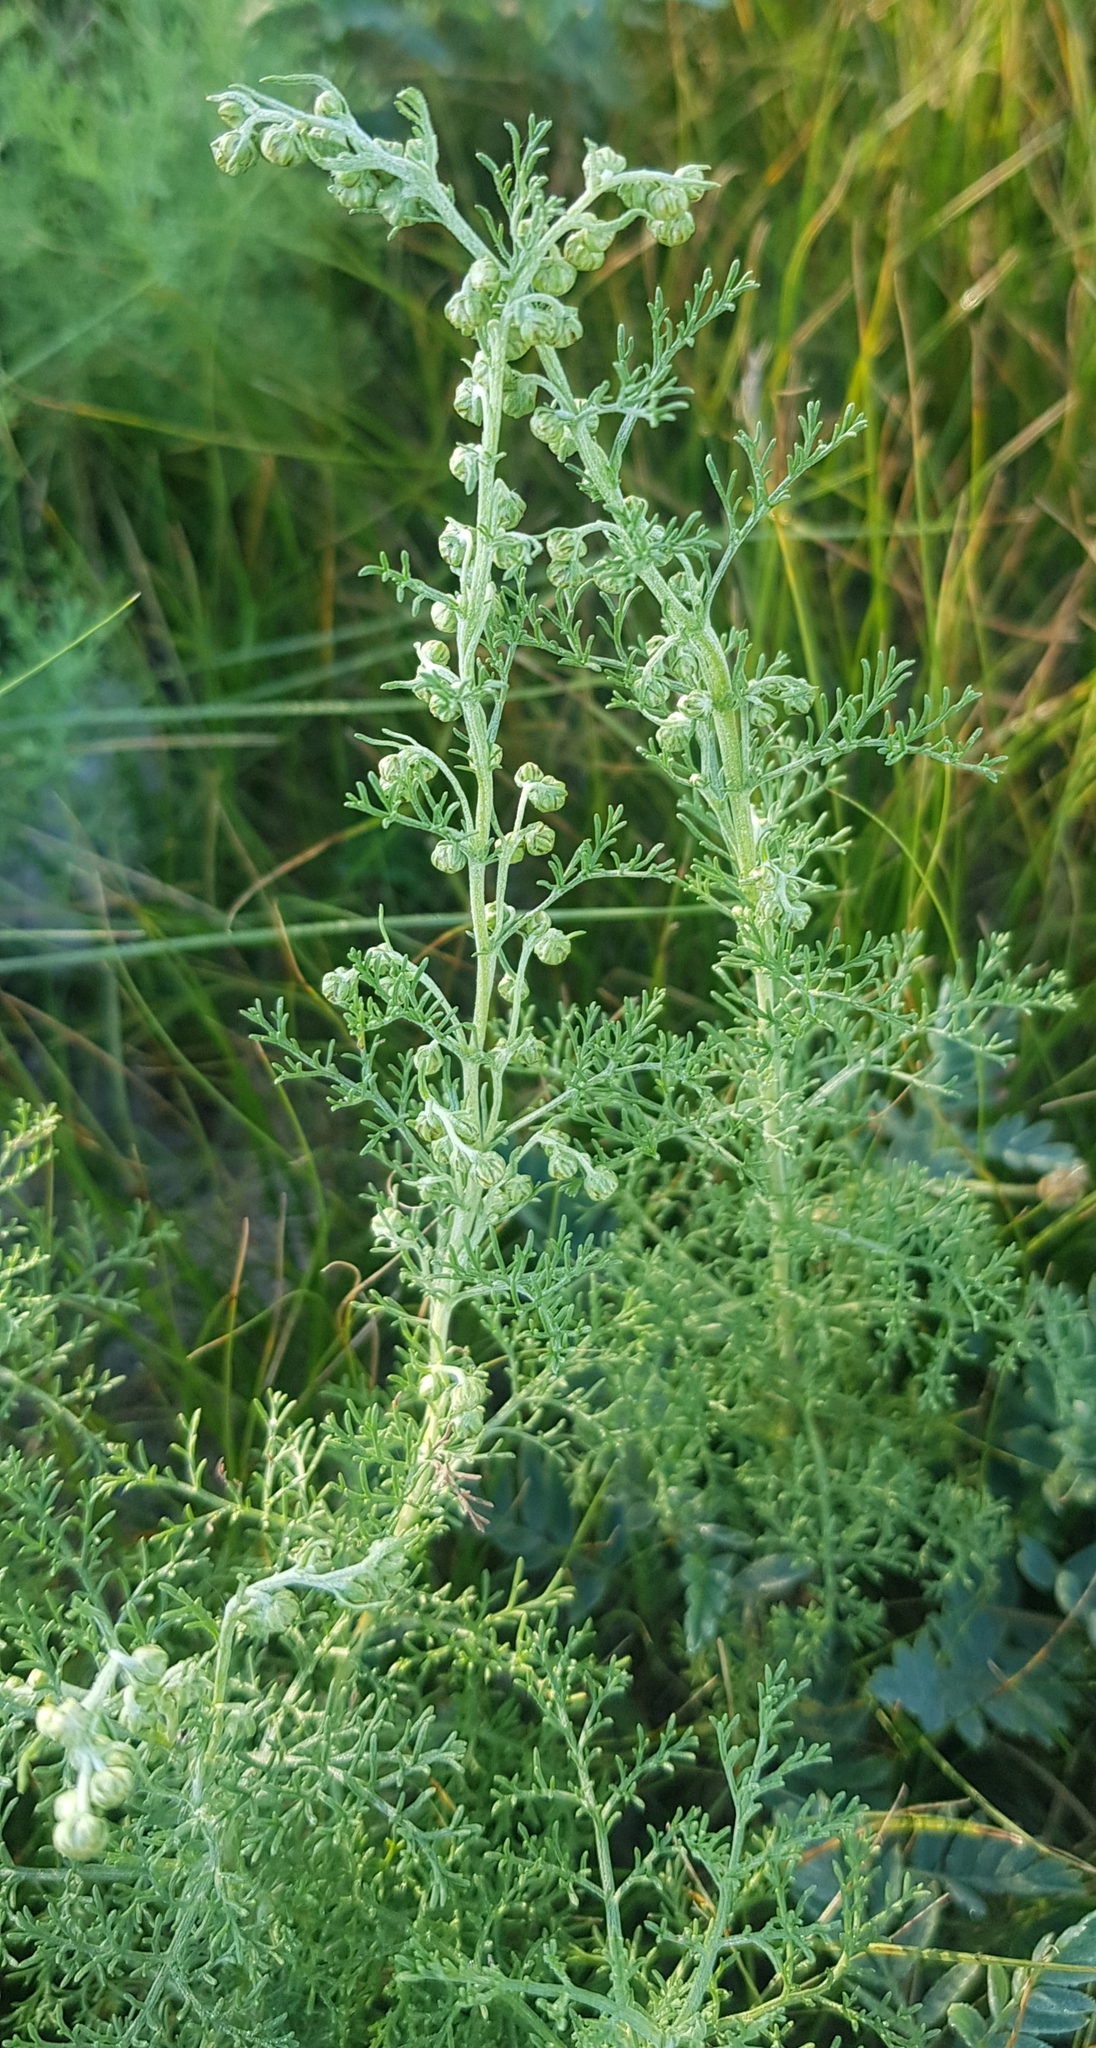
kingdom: Plantae
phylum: Tracheophyta
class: Magnoliopsida
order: Asterales
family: Asteraceae
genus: Artemisia
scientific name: Artemisia adamsii
